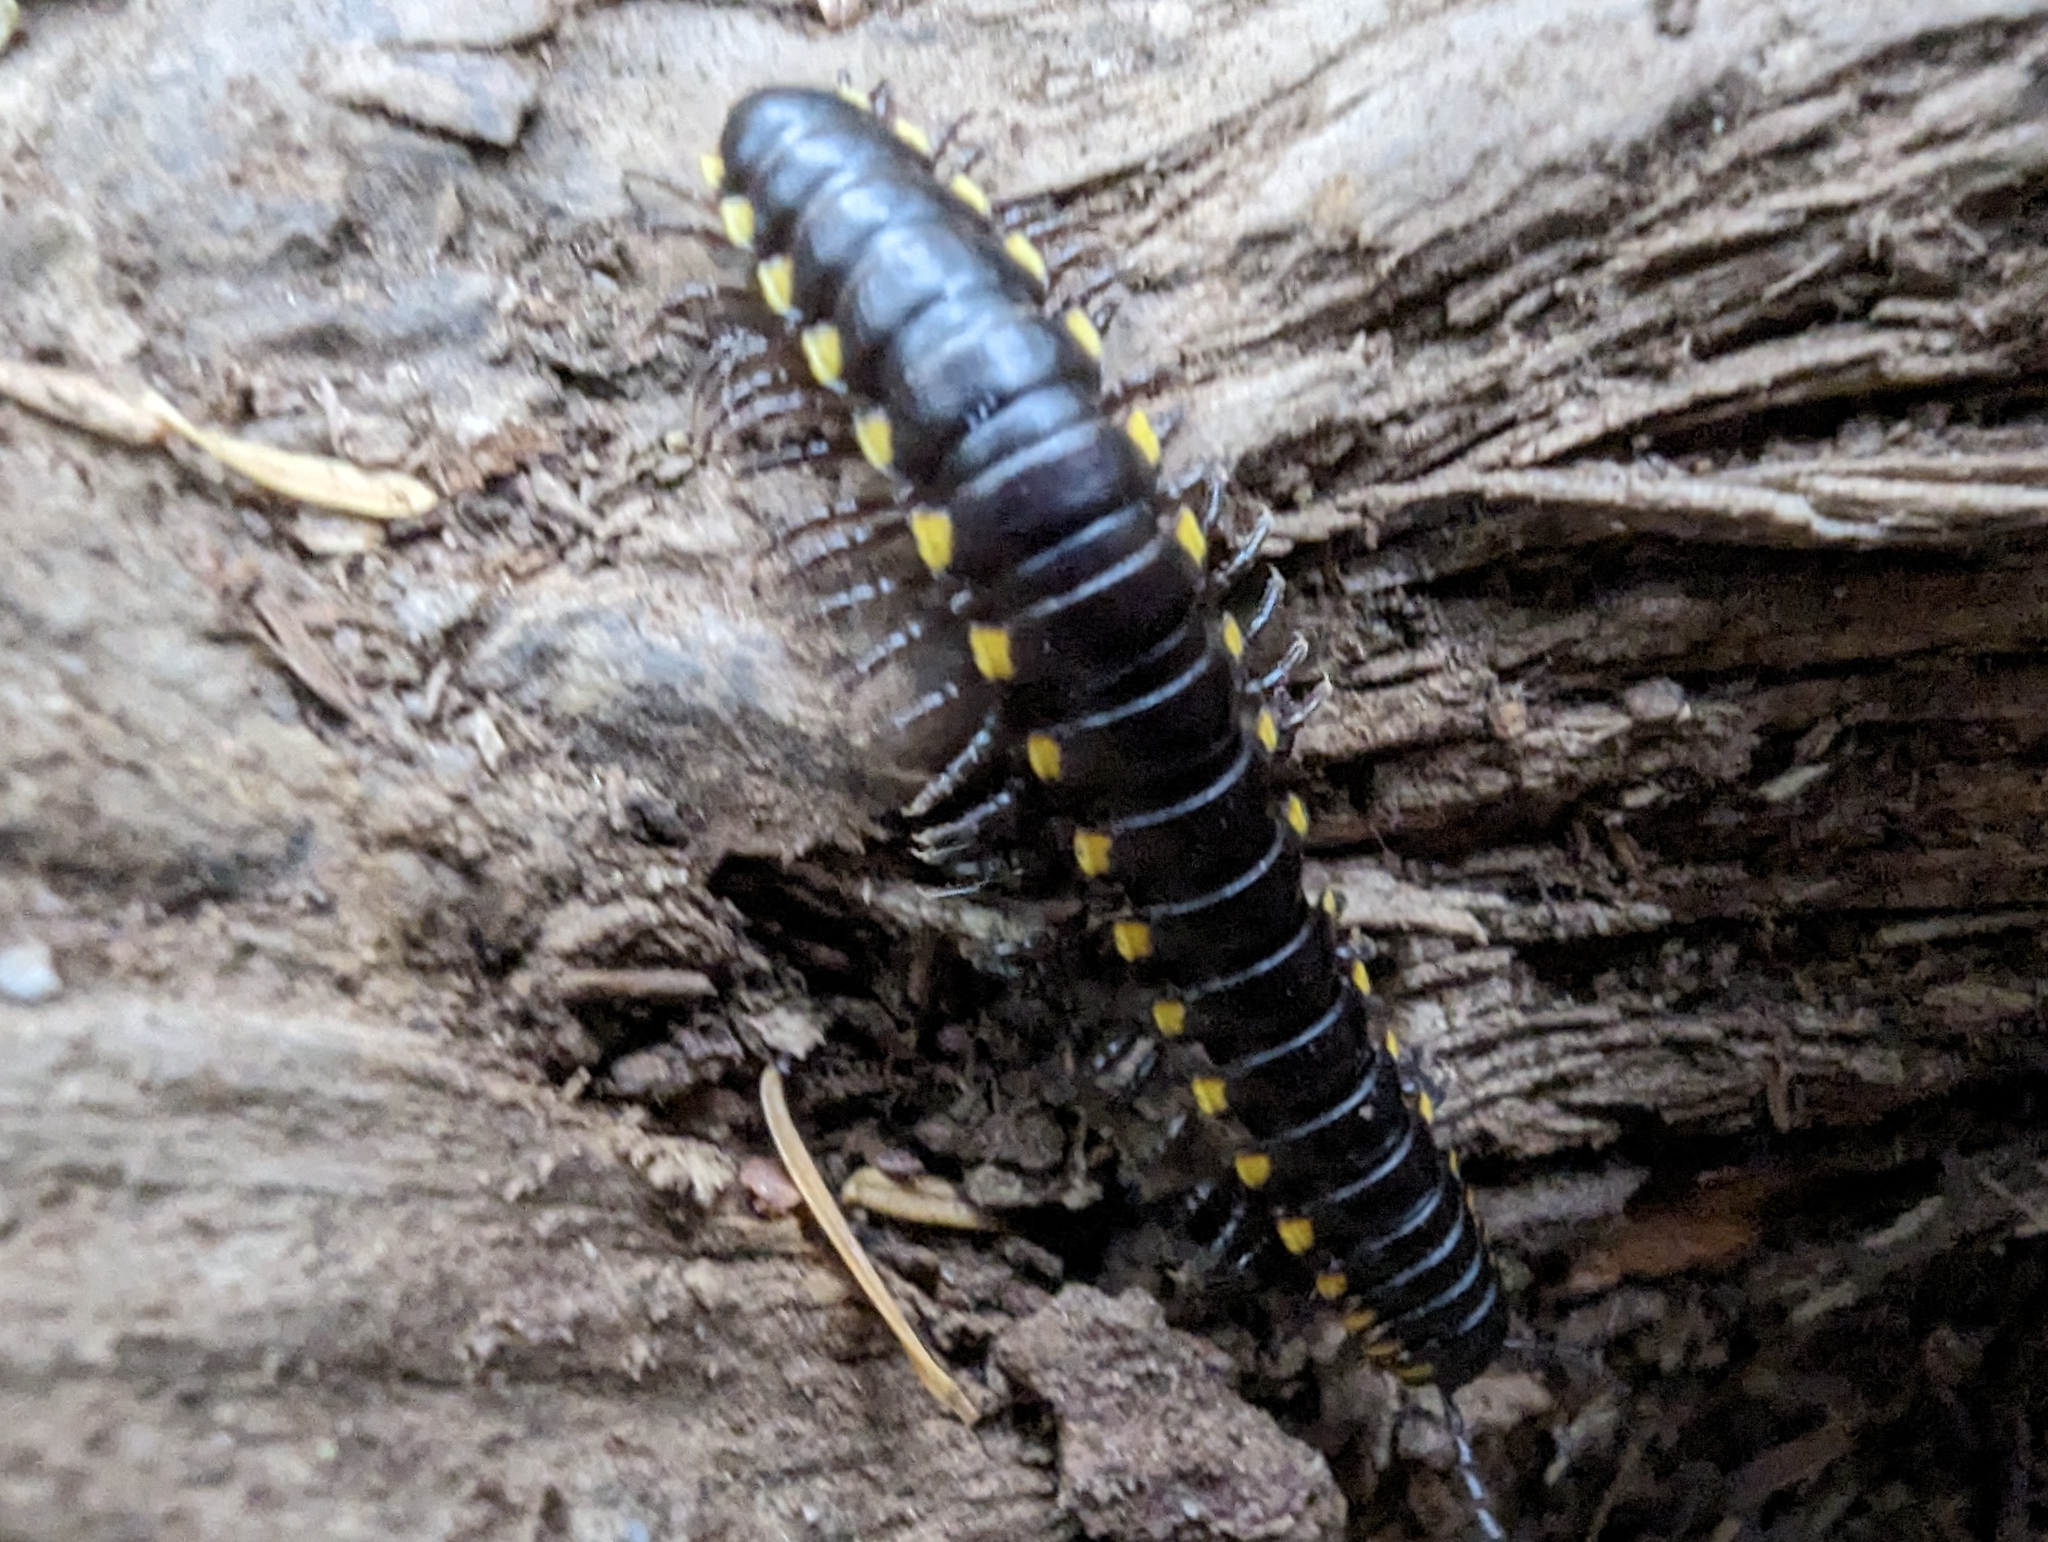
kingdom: Animalia
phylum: Arthropoda
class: Diplopoda
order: Polydesmida
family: Xystodesmidae
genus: Harpaphe
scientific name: Harpaphe haydeniana
